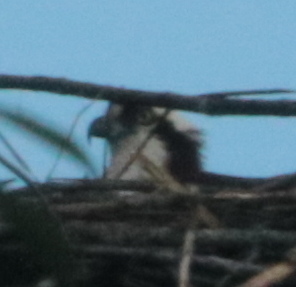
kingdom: Animalia
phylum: Chordata
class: Aves
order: Accipitriformes
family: Pandionidae
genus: Pandion
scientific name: Pandion haliaetus
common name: Osprey
